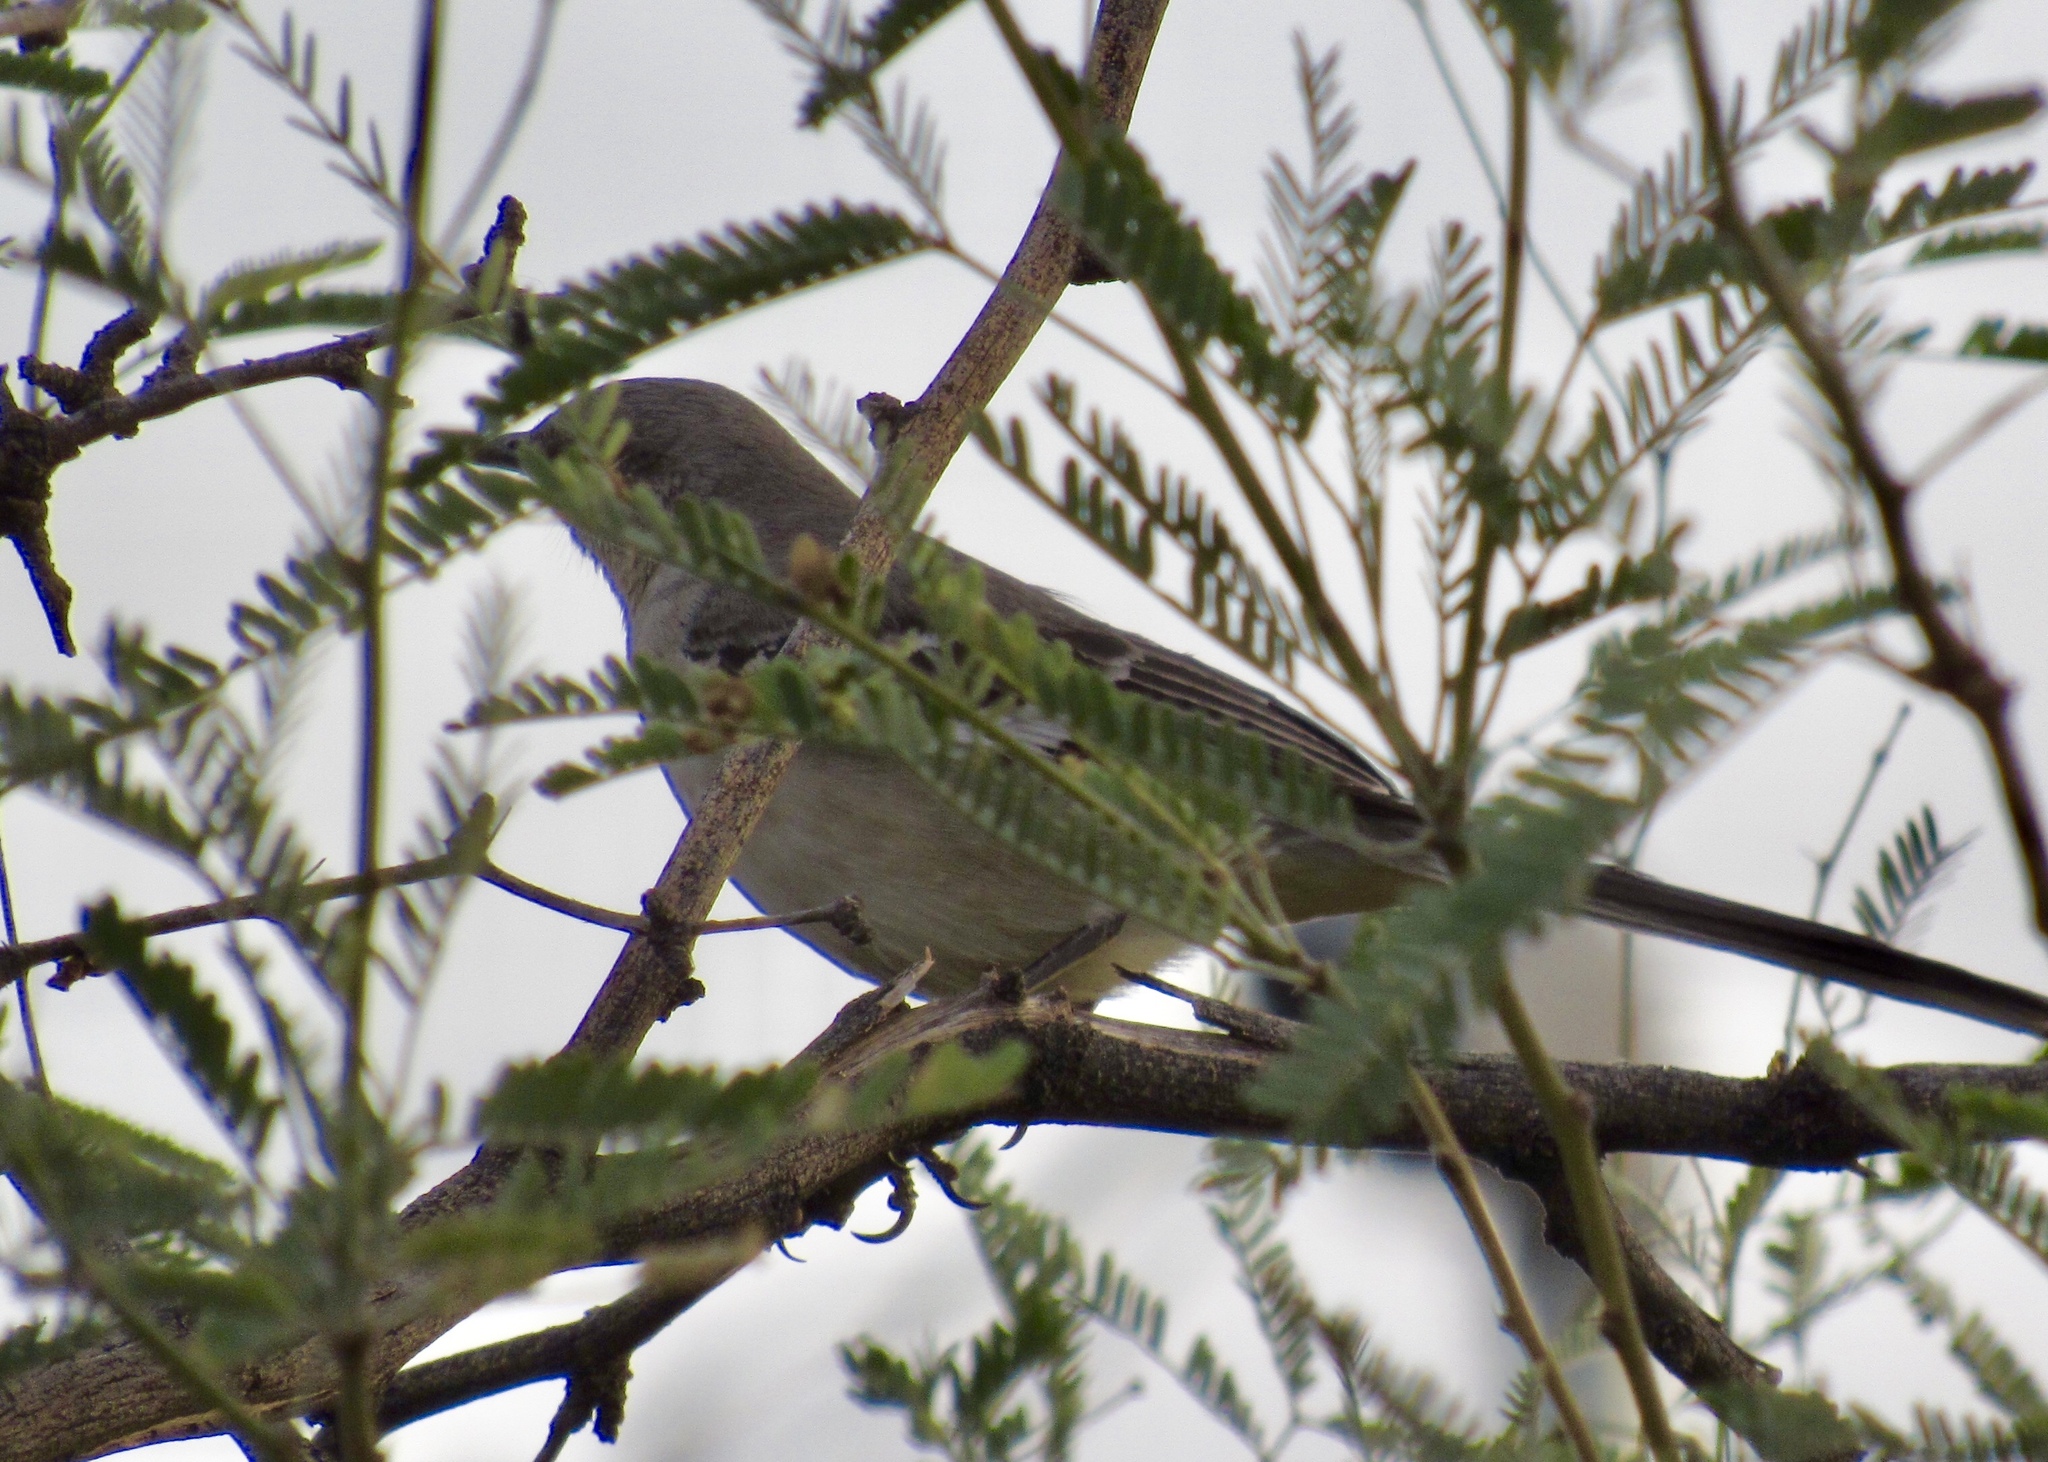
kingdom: Animalia
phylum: Chordata
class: Aves
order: Passeriformes
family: Mimidae
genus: Mimus
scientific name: Mimus polyglottos
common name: Northern mockingbird
